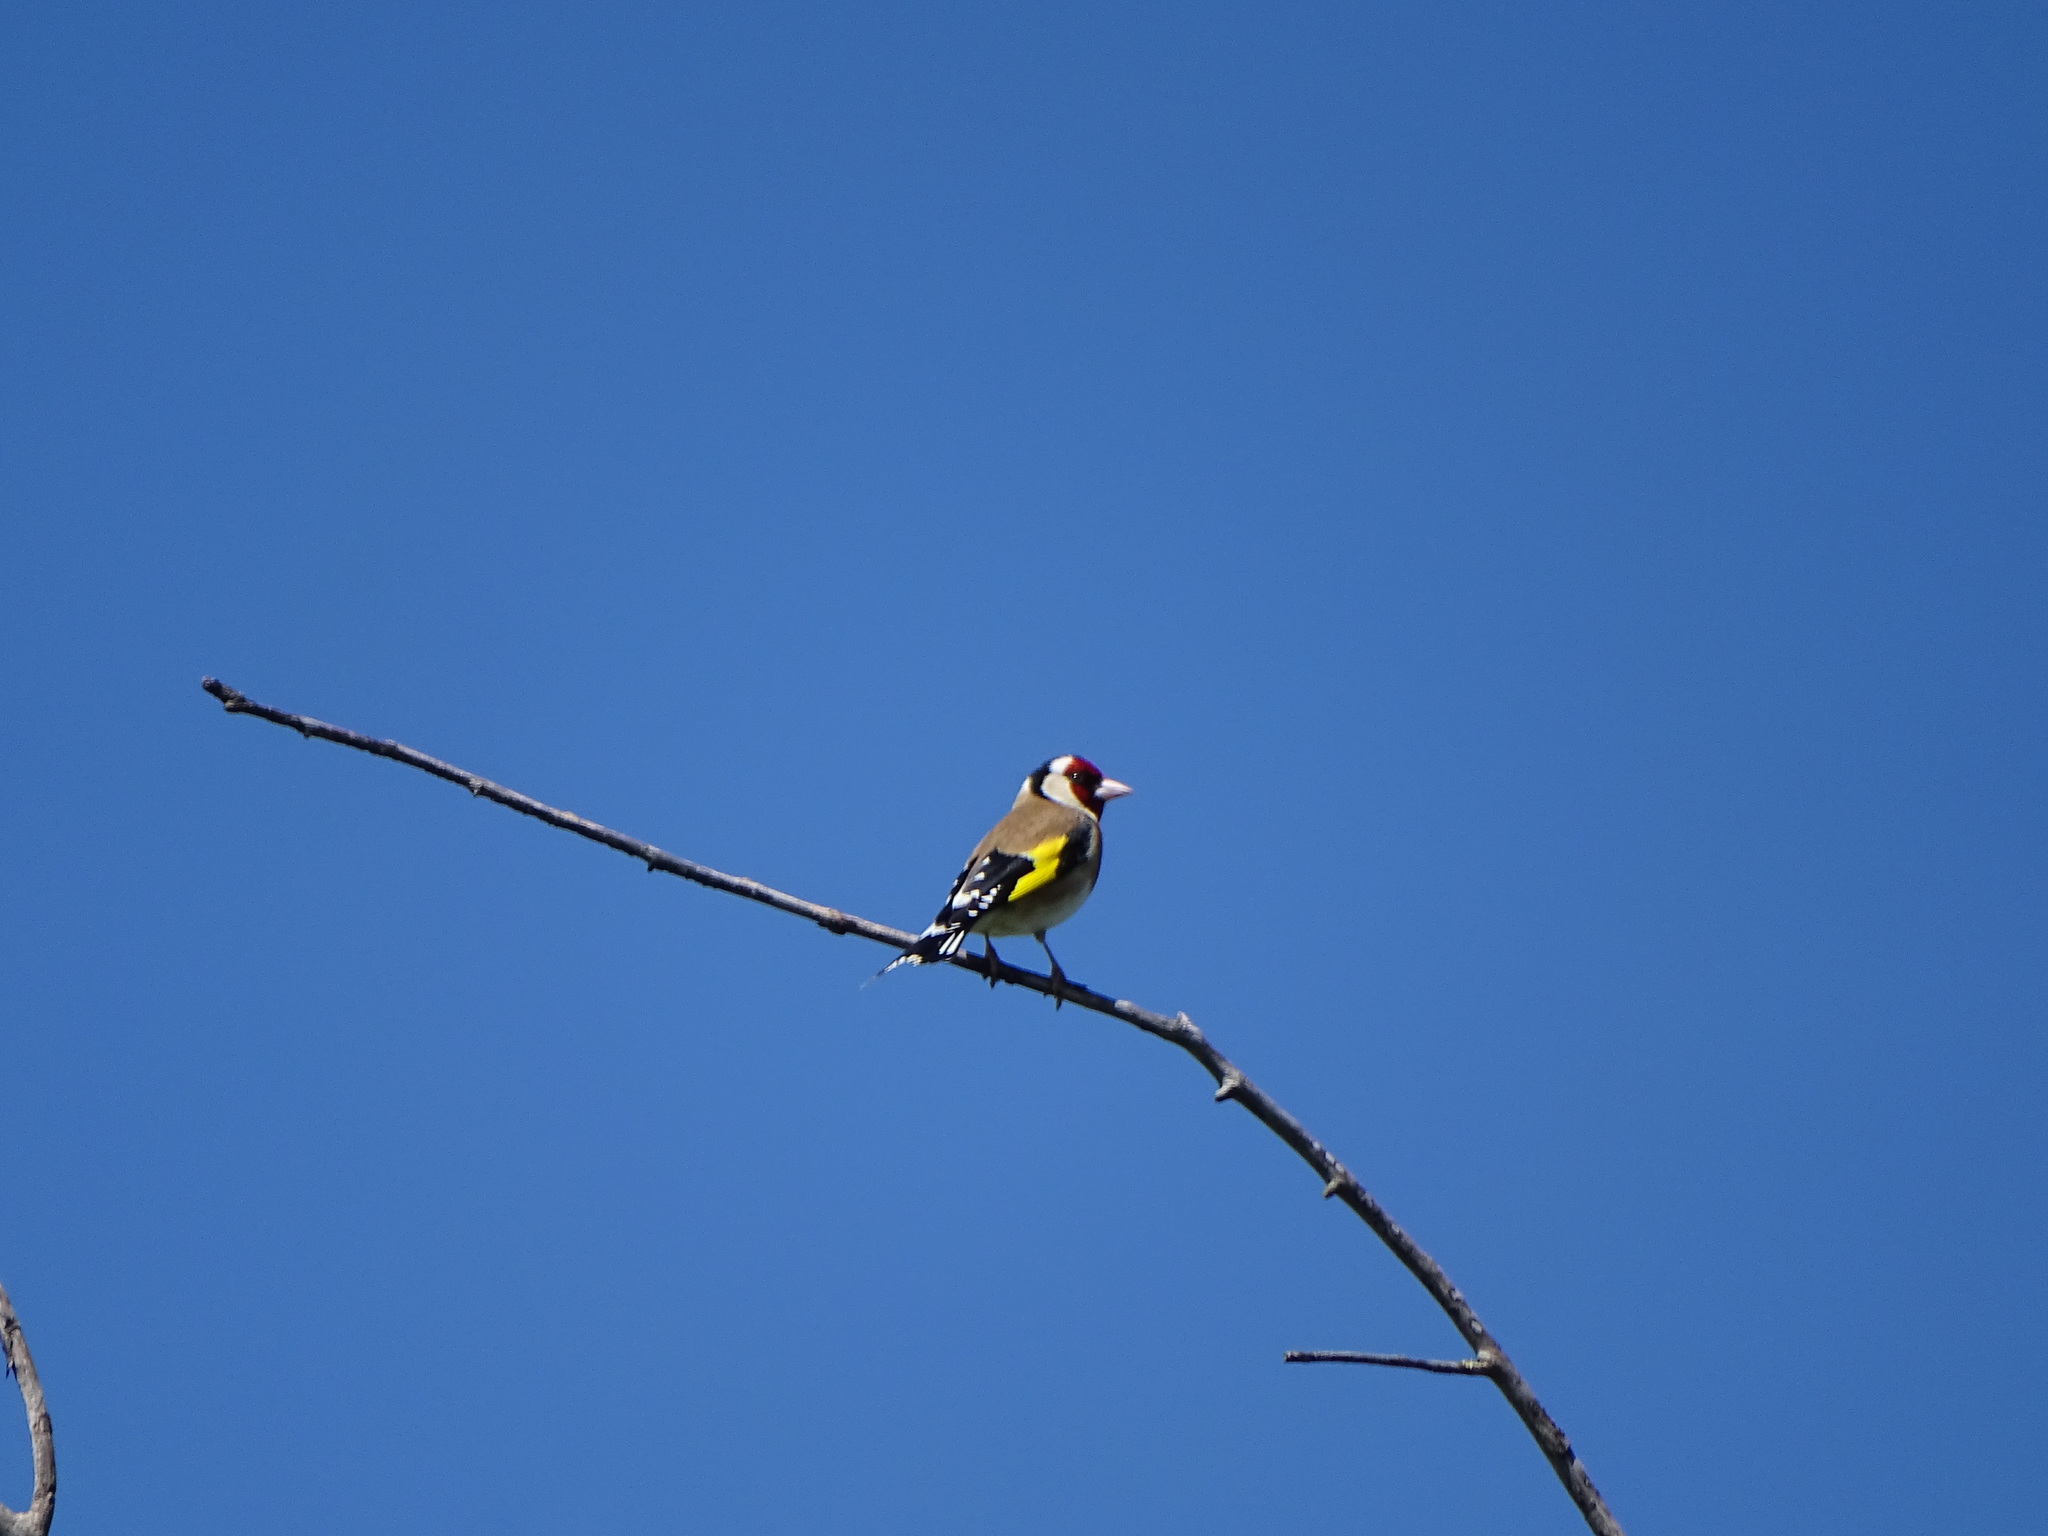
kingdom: Animalia
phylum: Chordata
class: Aves
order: Passeriformes
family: Fringillidae
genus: Carduelis
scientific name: Carduelis carduelis
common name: European goldfinch
